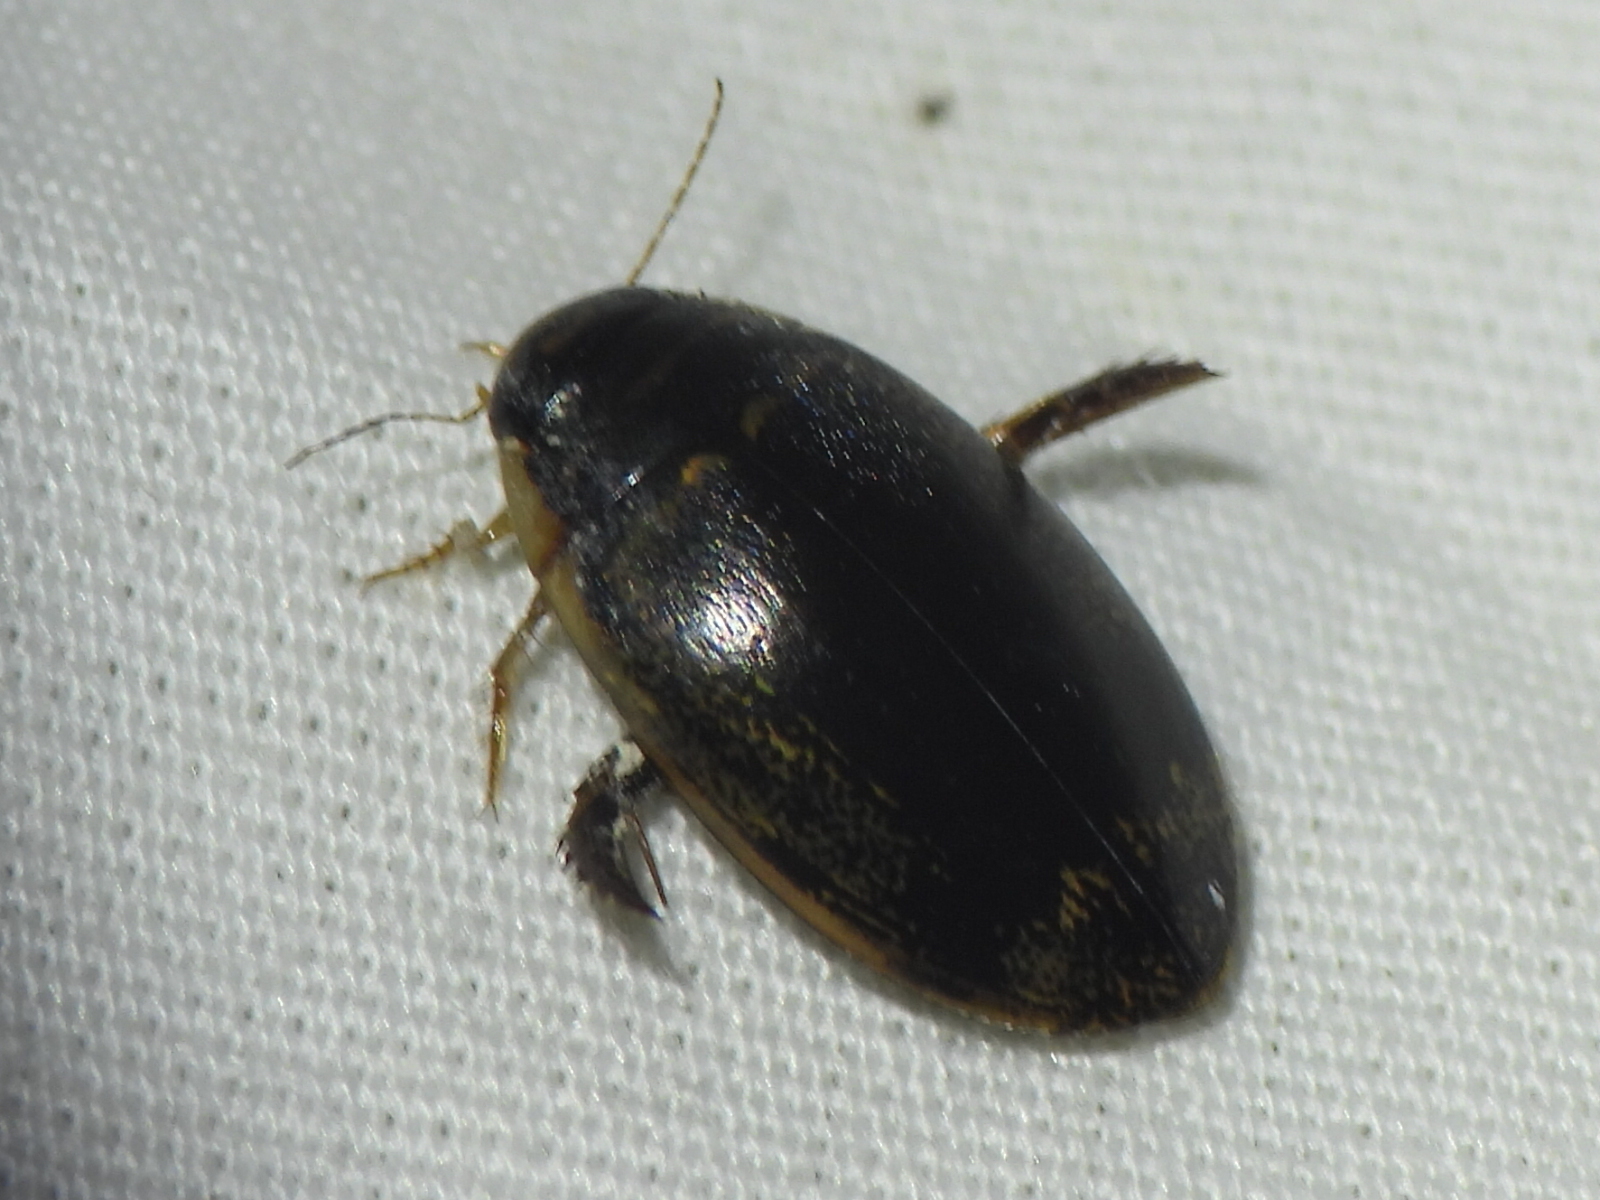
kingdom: Animalia
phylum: Arthropoda
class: Insecta
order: Coleoptera
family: Dytiscidae
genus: Thermonectus
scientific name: Thermonectus basillaris
